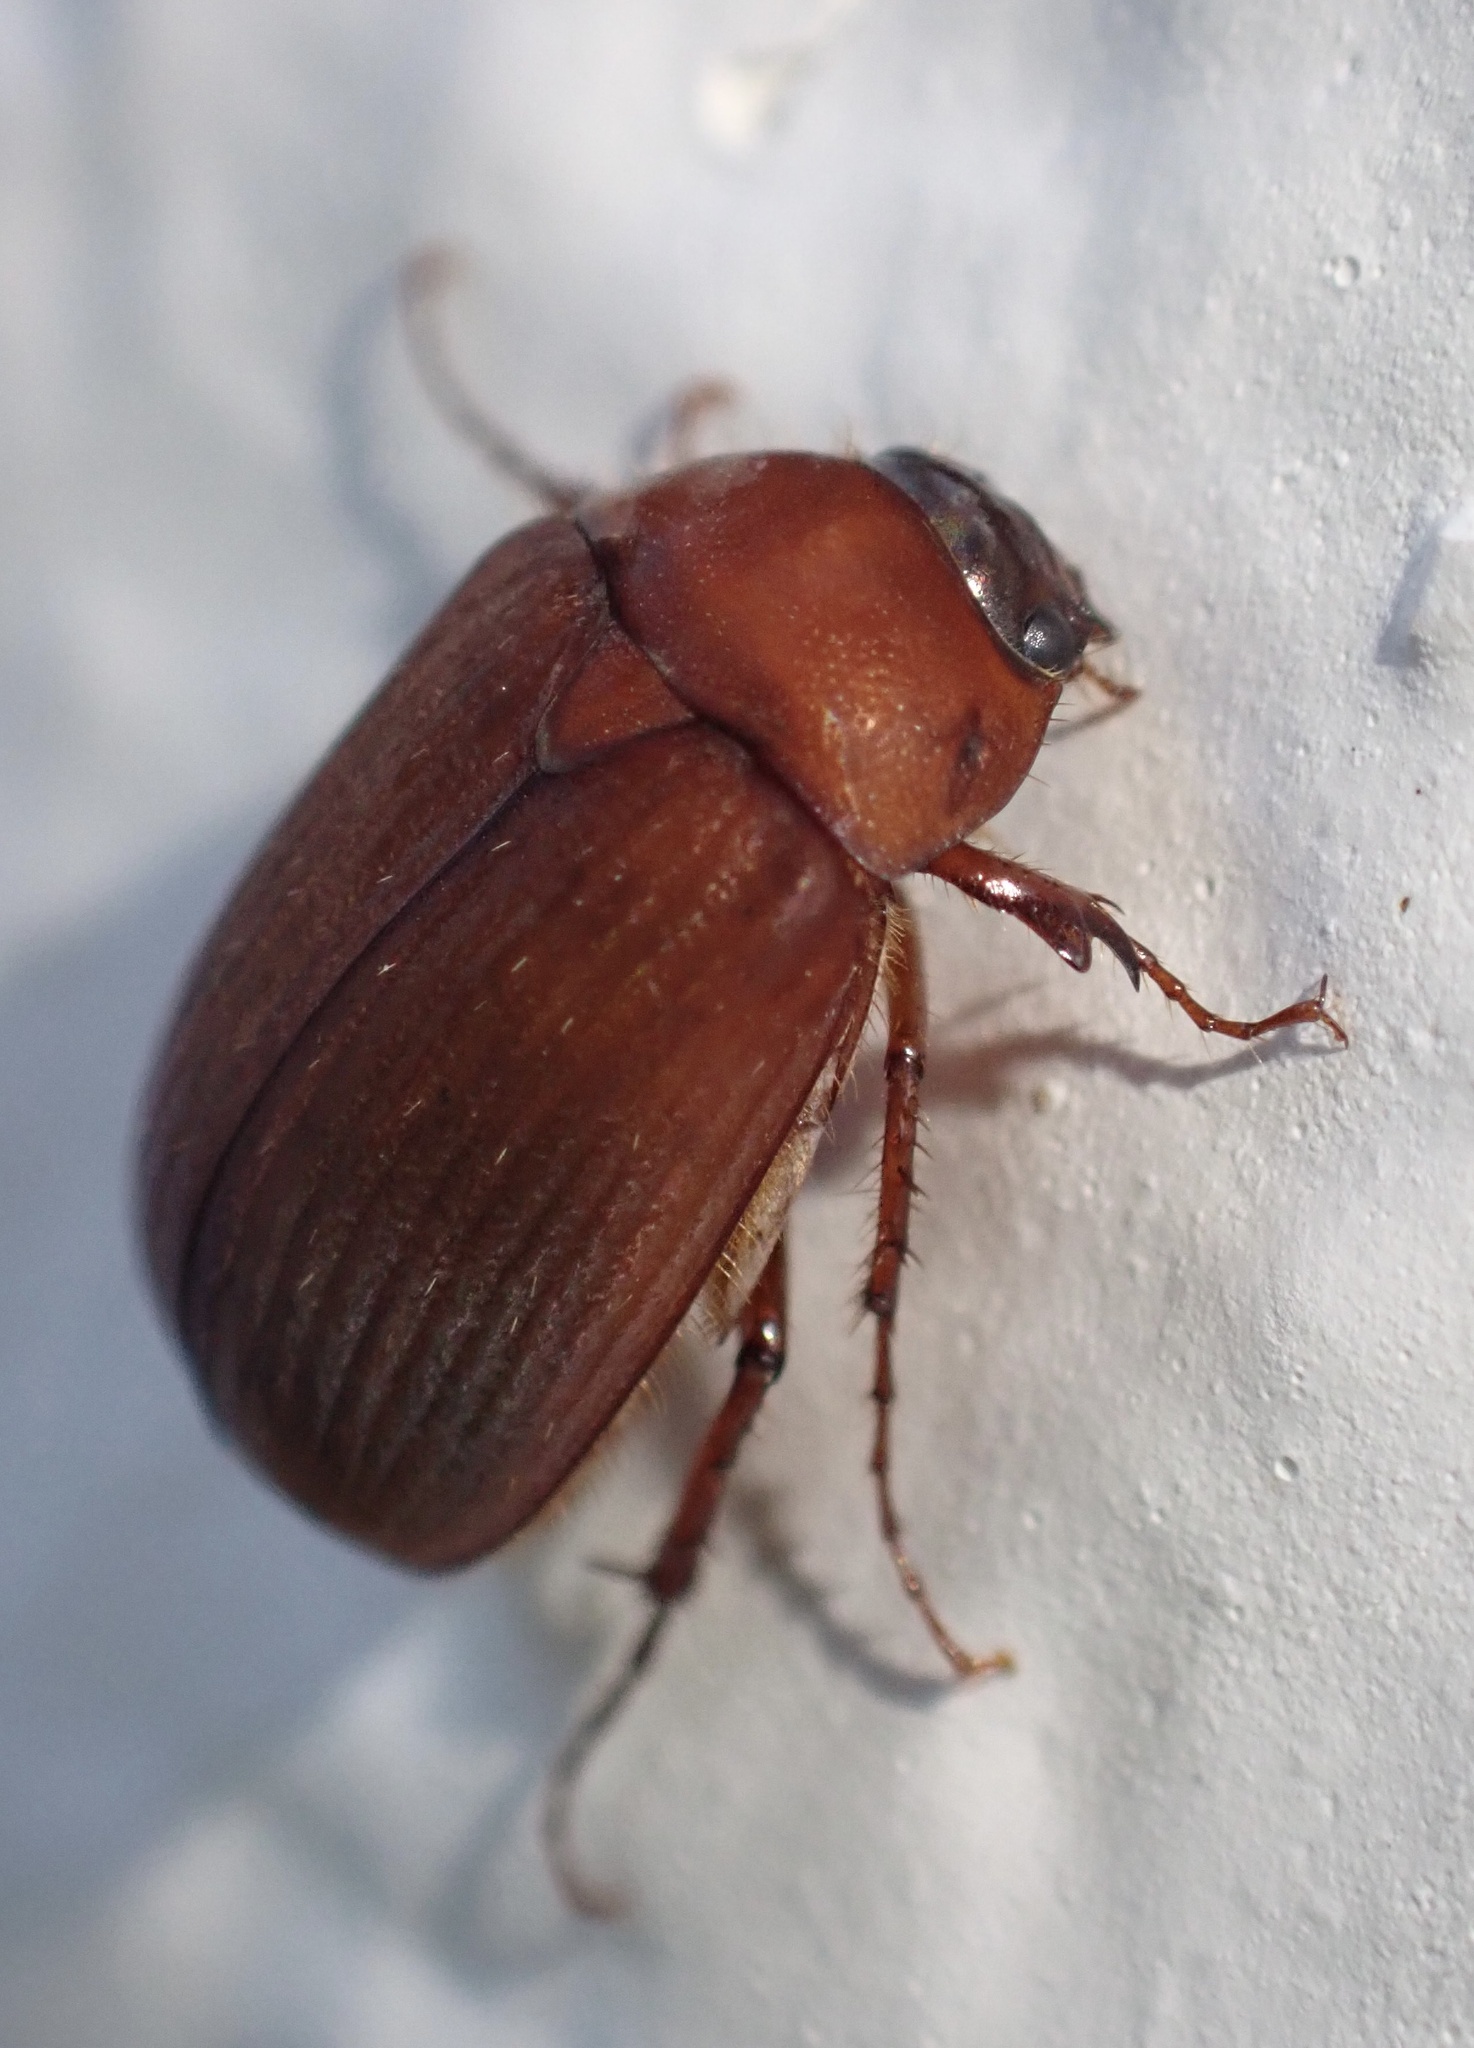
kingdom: Animalia
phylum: Arthropoda
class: Insecta
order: Coleoptera
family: Scarabaeidae
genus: Serica
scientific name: Serica brunnea
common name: Brown chafer
